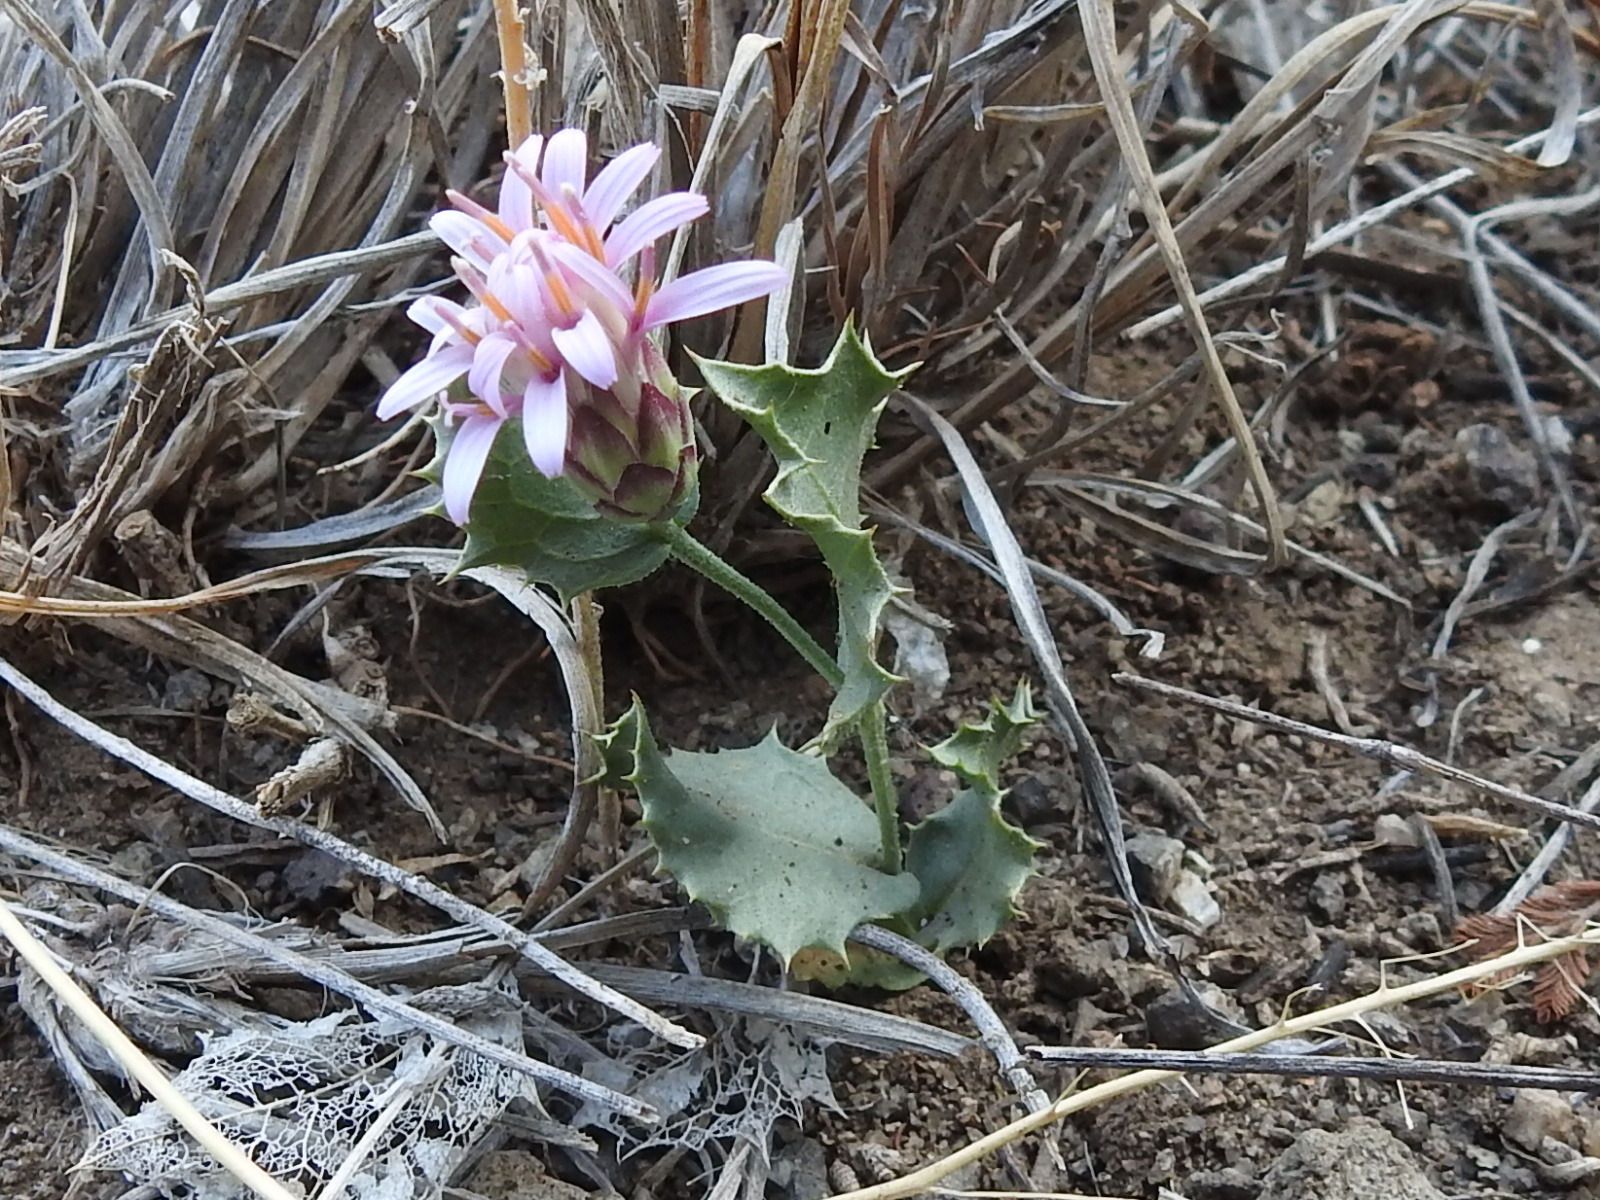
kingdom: Plantae
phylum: Tracheophyta
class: Magnoliopsida
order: Asterales
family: Asteraceae
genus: Acourtia
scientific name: Acourtia nana
